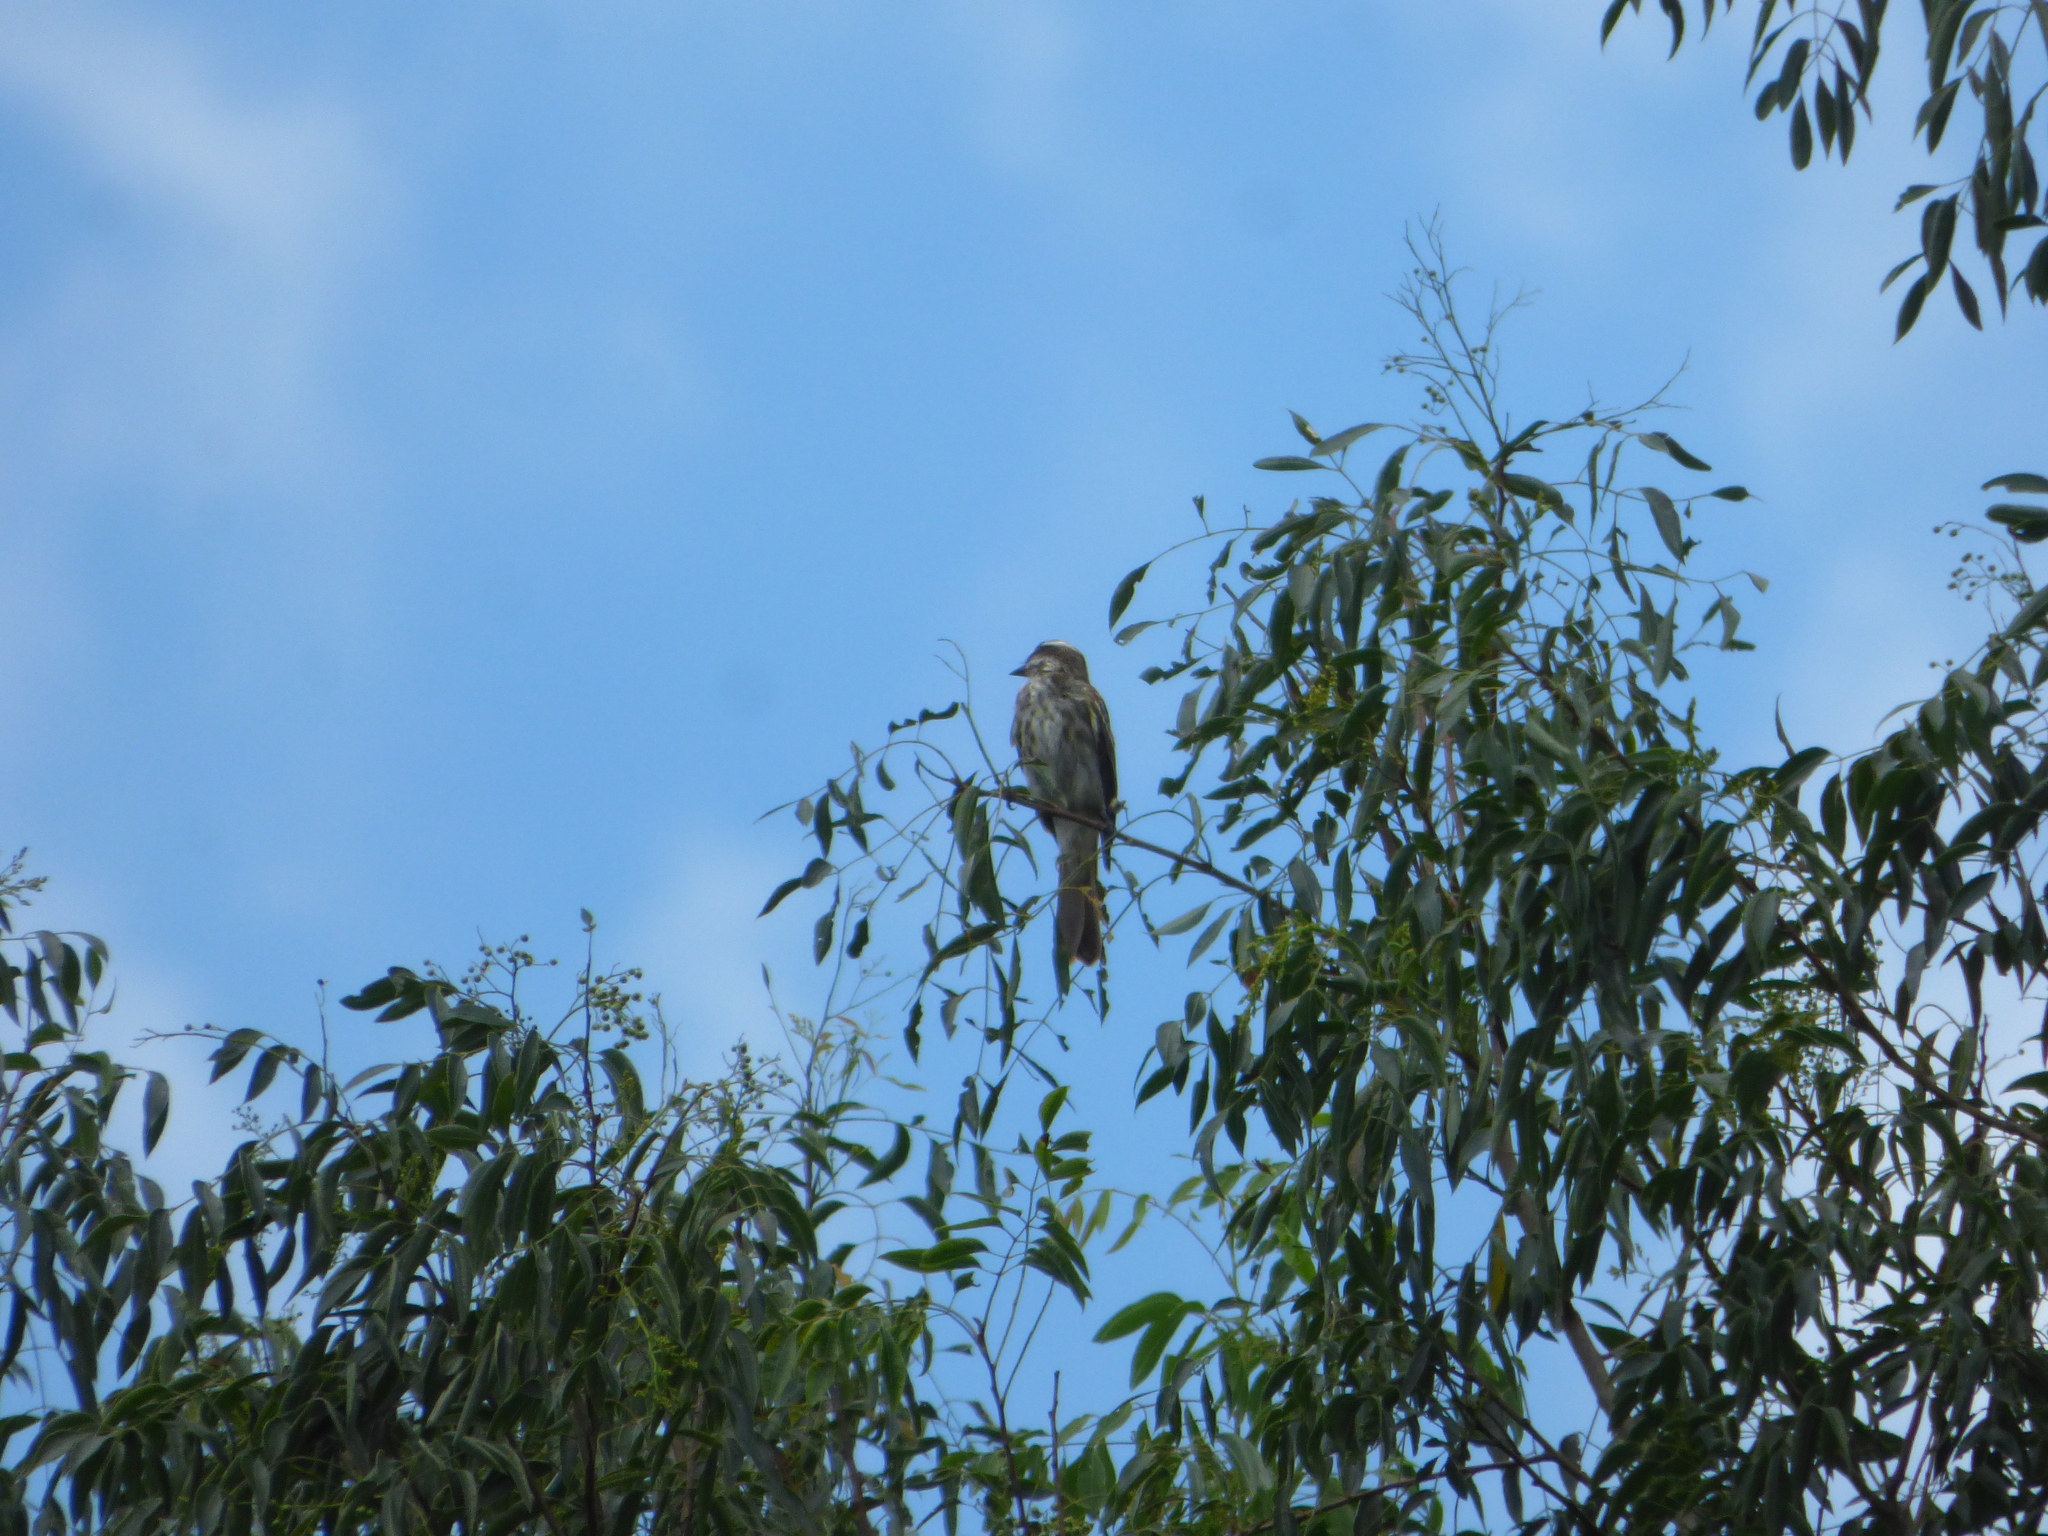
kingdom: Animalia
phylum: Chordata
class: Aves
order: Passeriformes
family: Tyrannidae
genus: Empidonomus
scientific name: Empidonomus varius
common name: Variegated flycatcher
